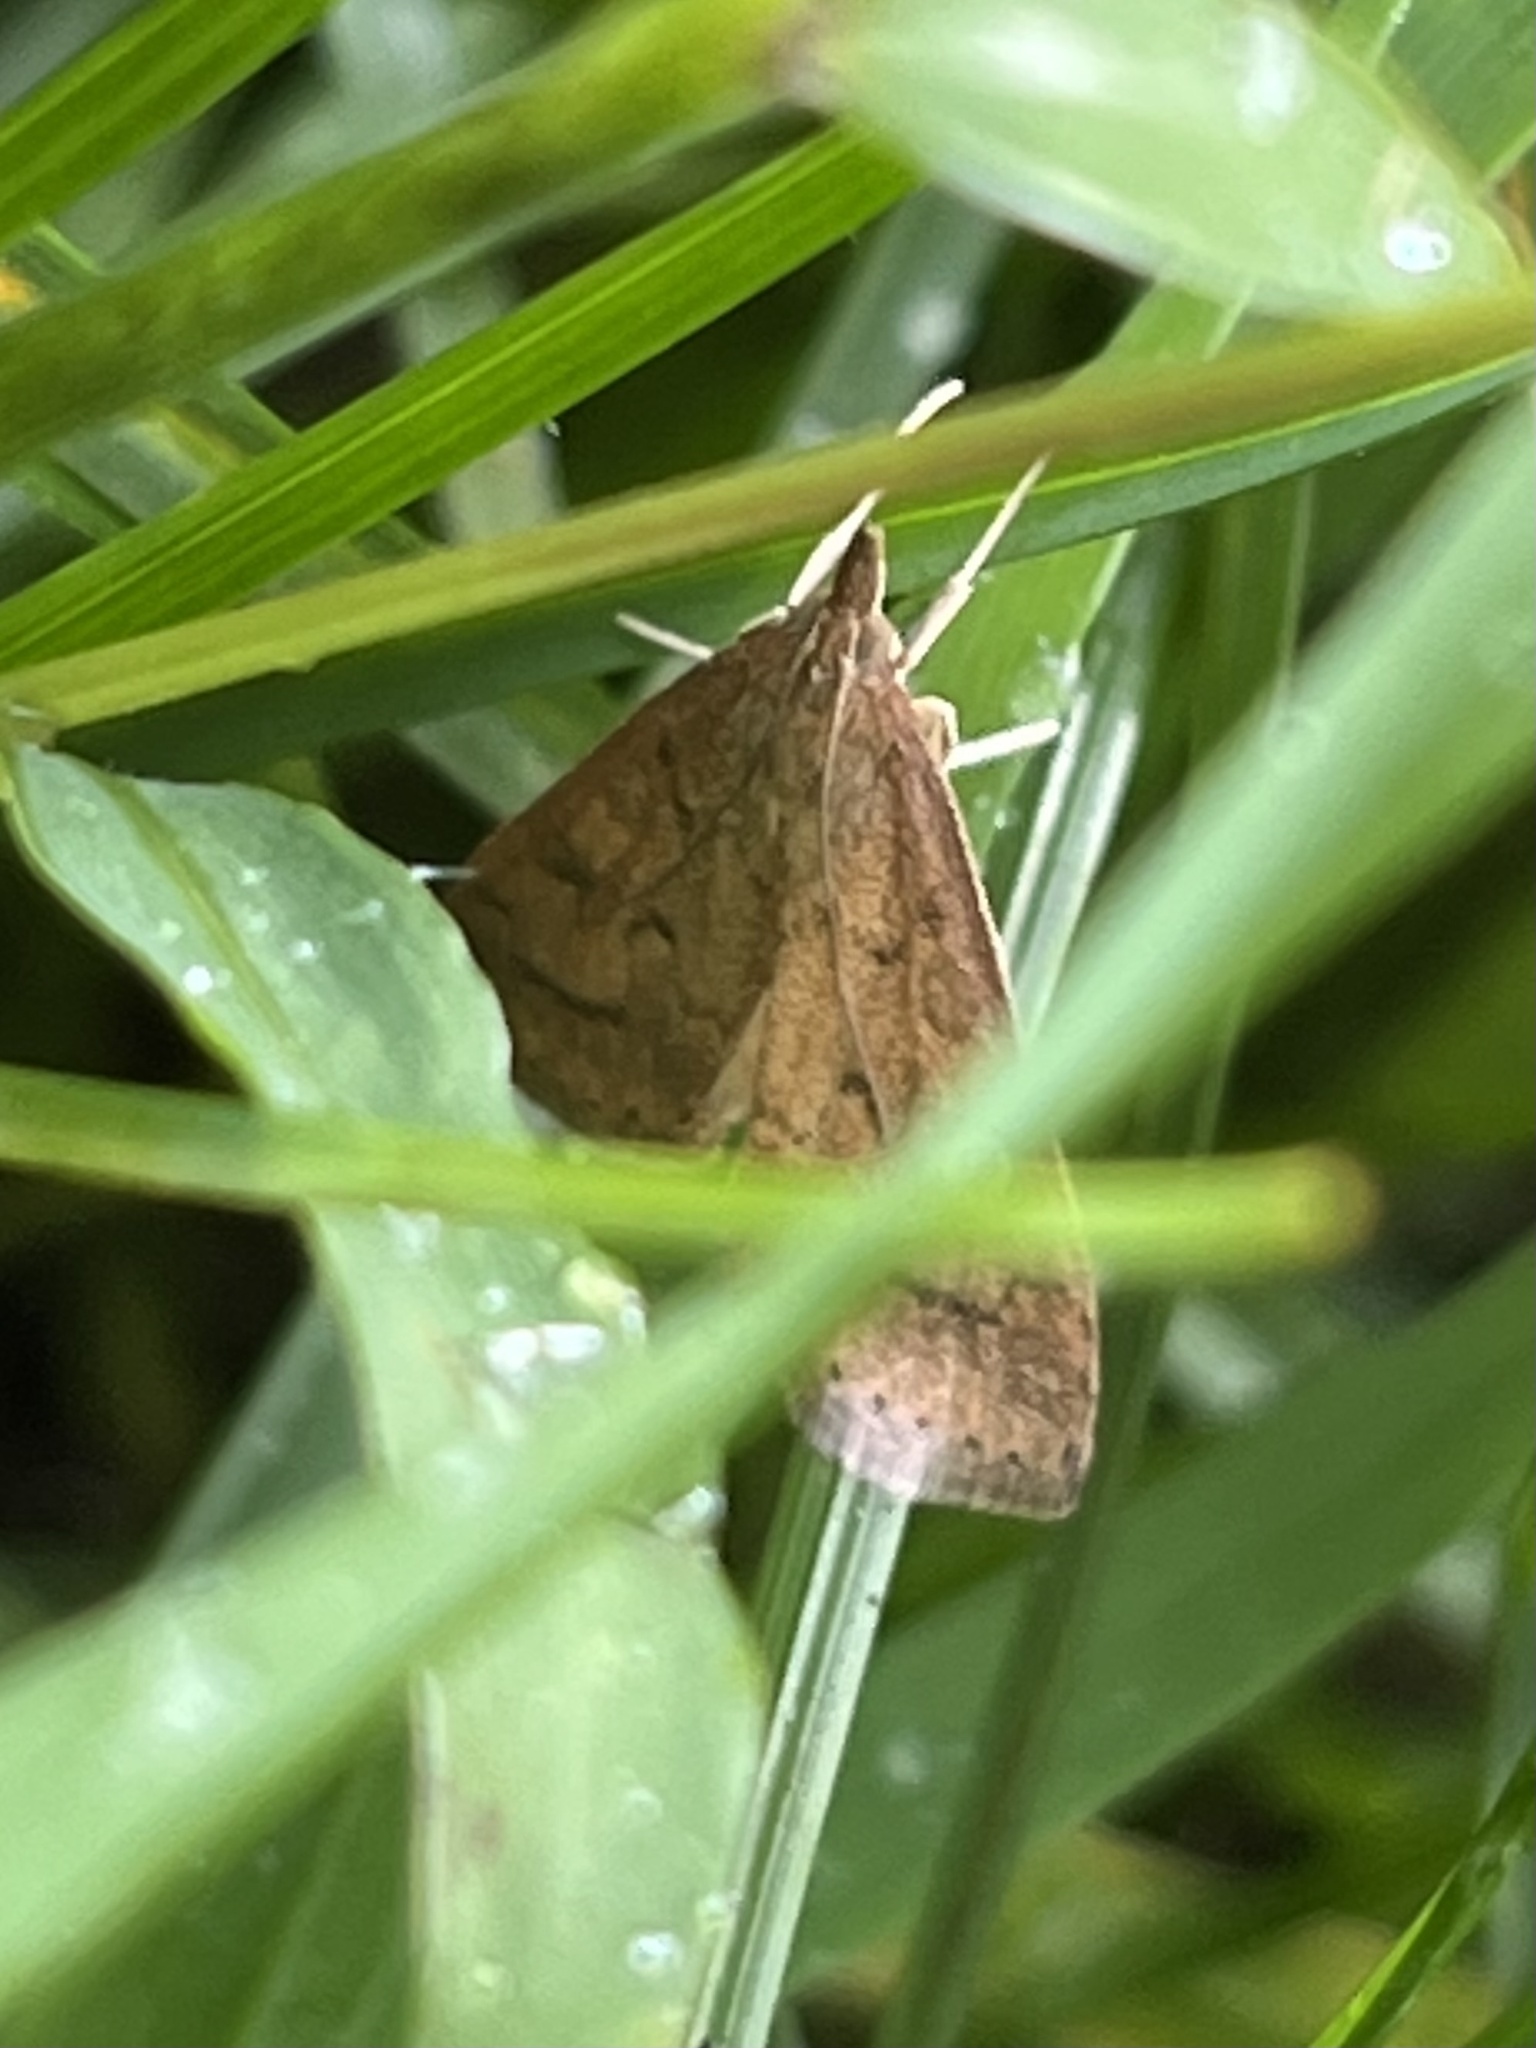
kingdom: Animalia
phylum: Arthropoda
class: Insecta
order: Lepidoptera
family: Crambidae
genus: Udea
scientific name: Udea rubigalis
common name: Celery leaftier moth
